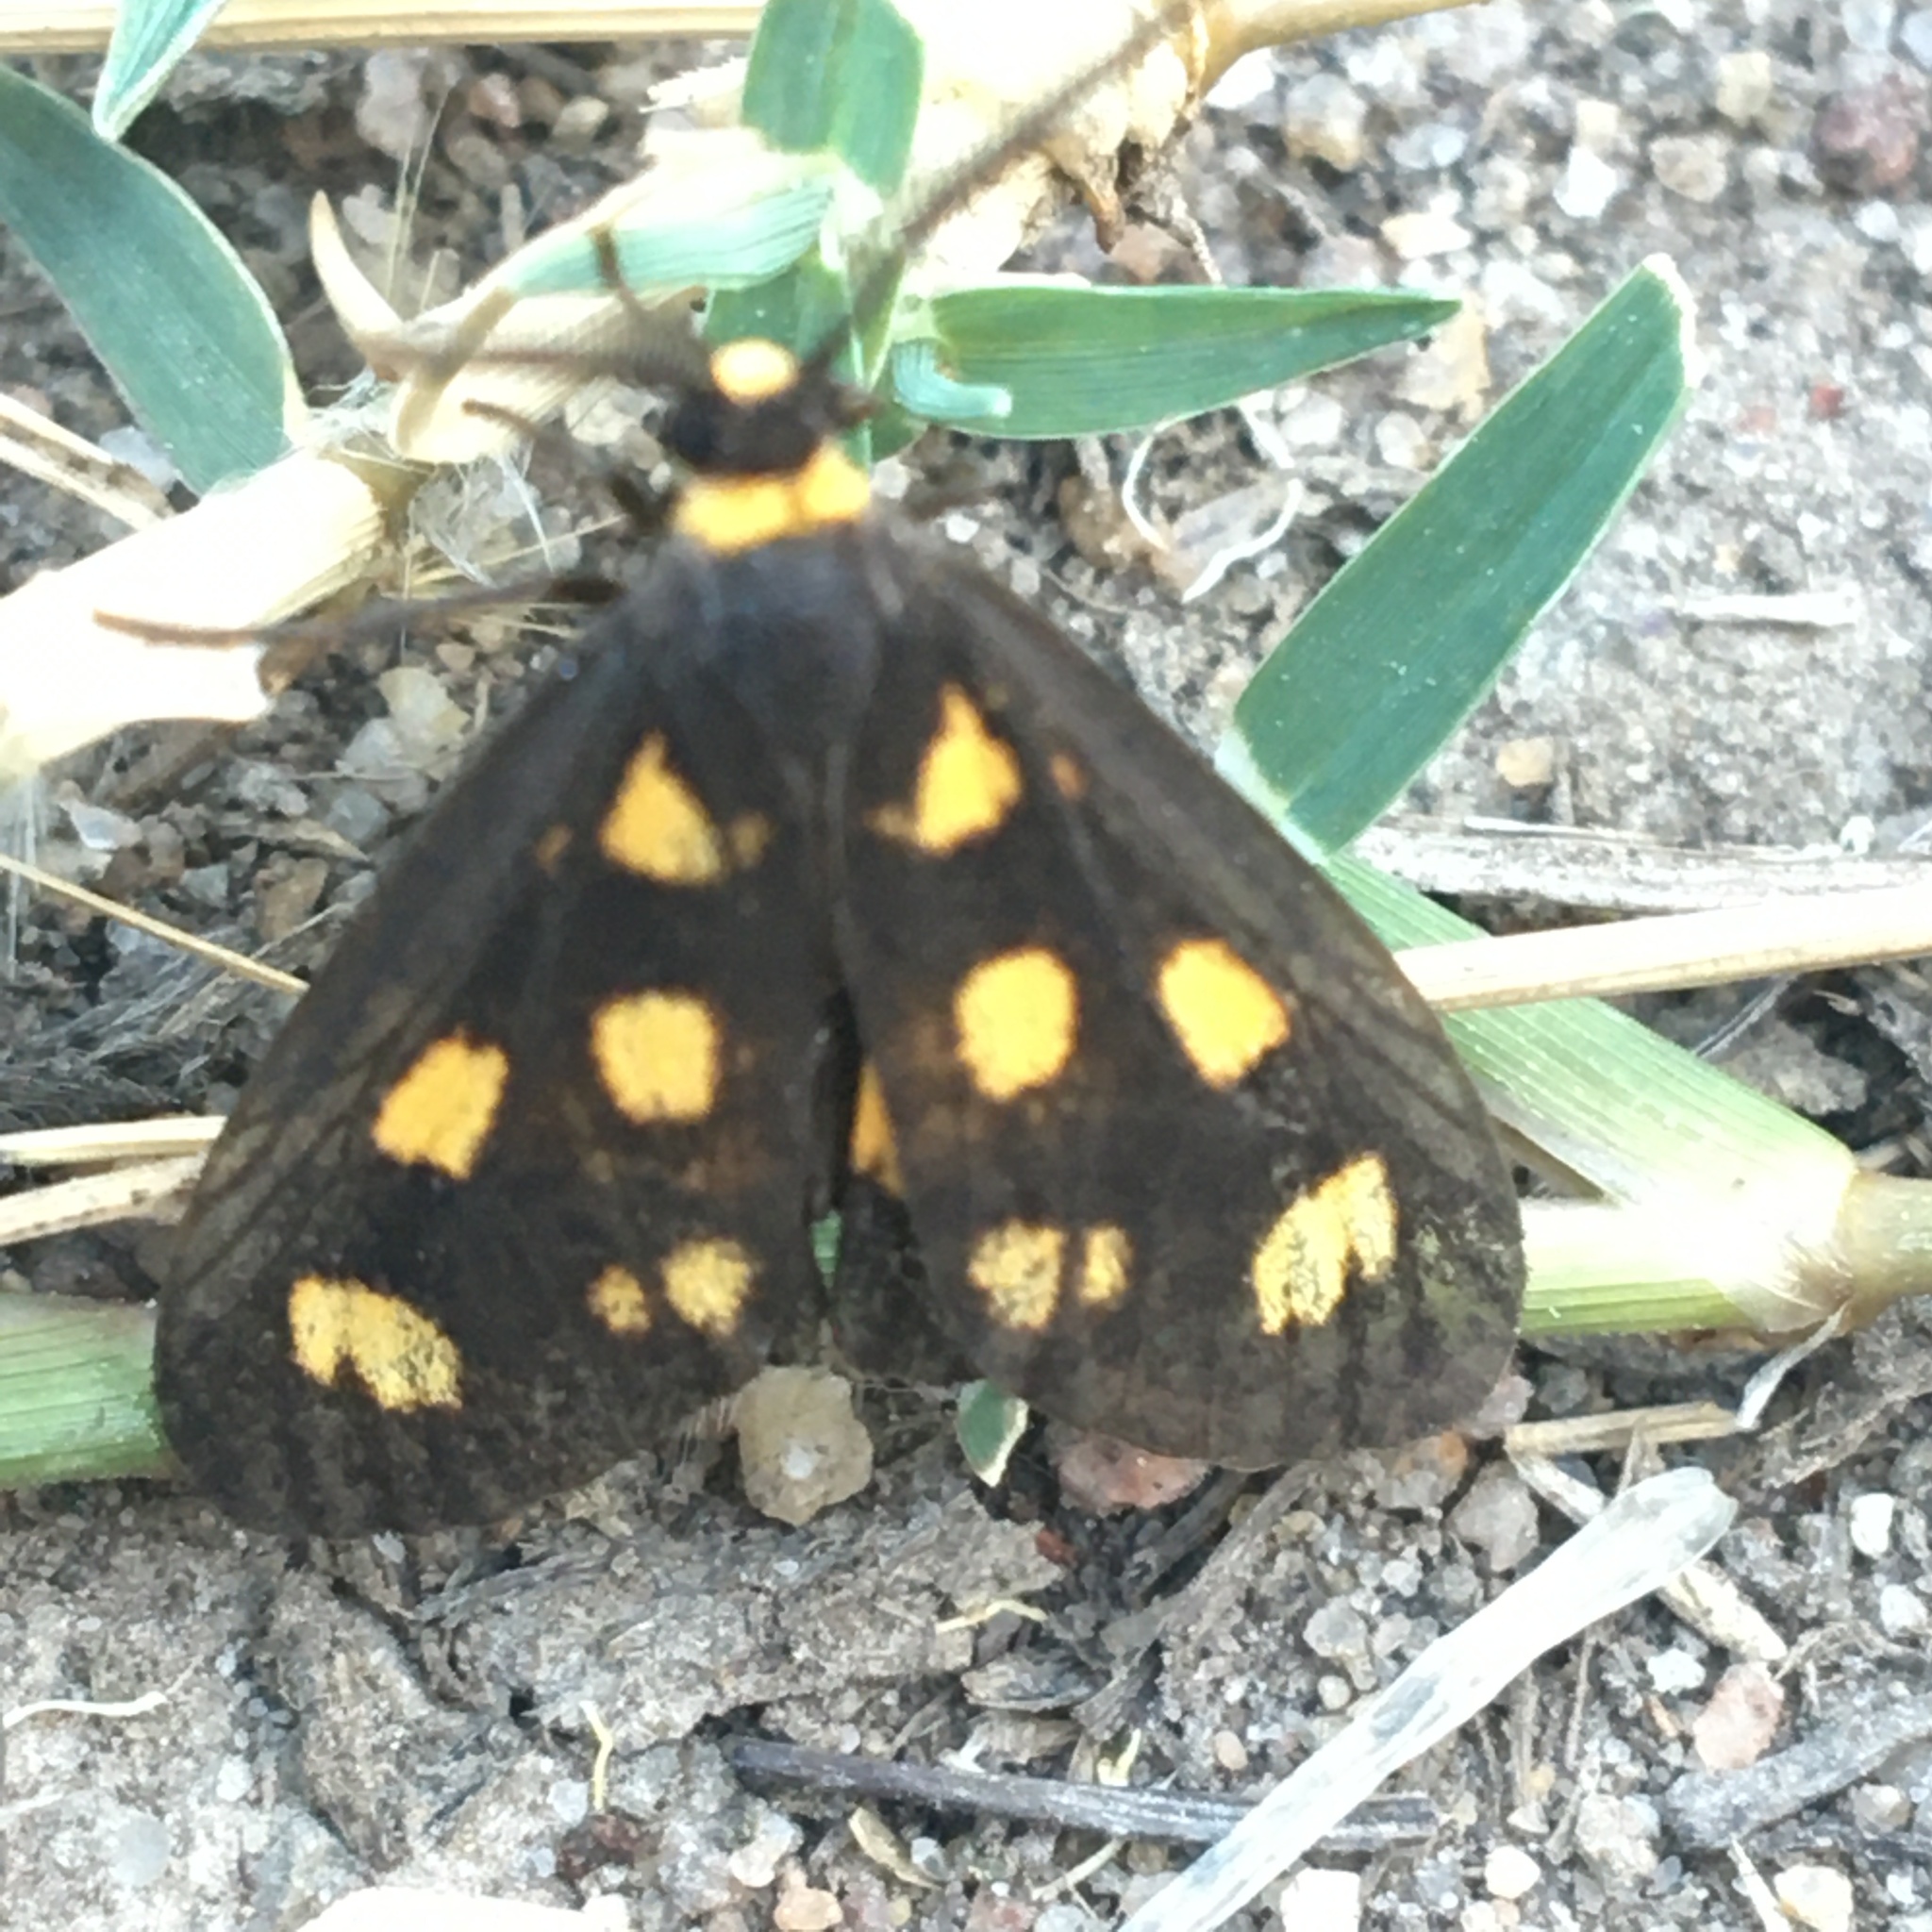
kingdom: Animalia
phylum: Arthropoda
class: Insecta
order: Lepidoptera
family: Erebidae
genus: Asura
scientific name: Asura cervicalis
